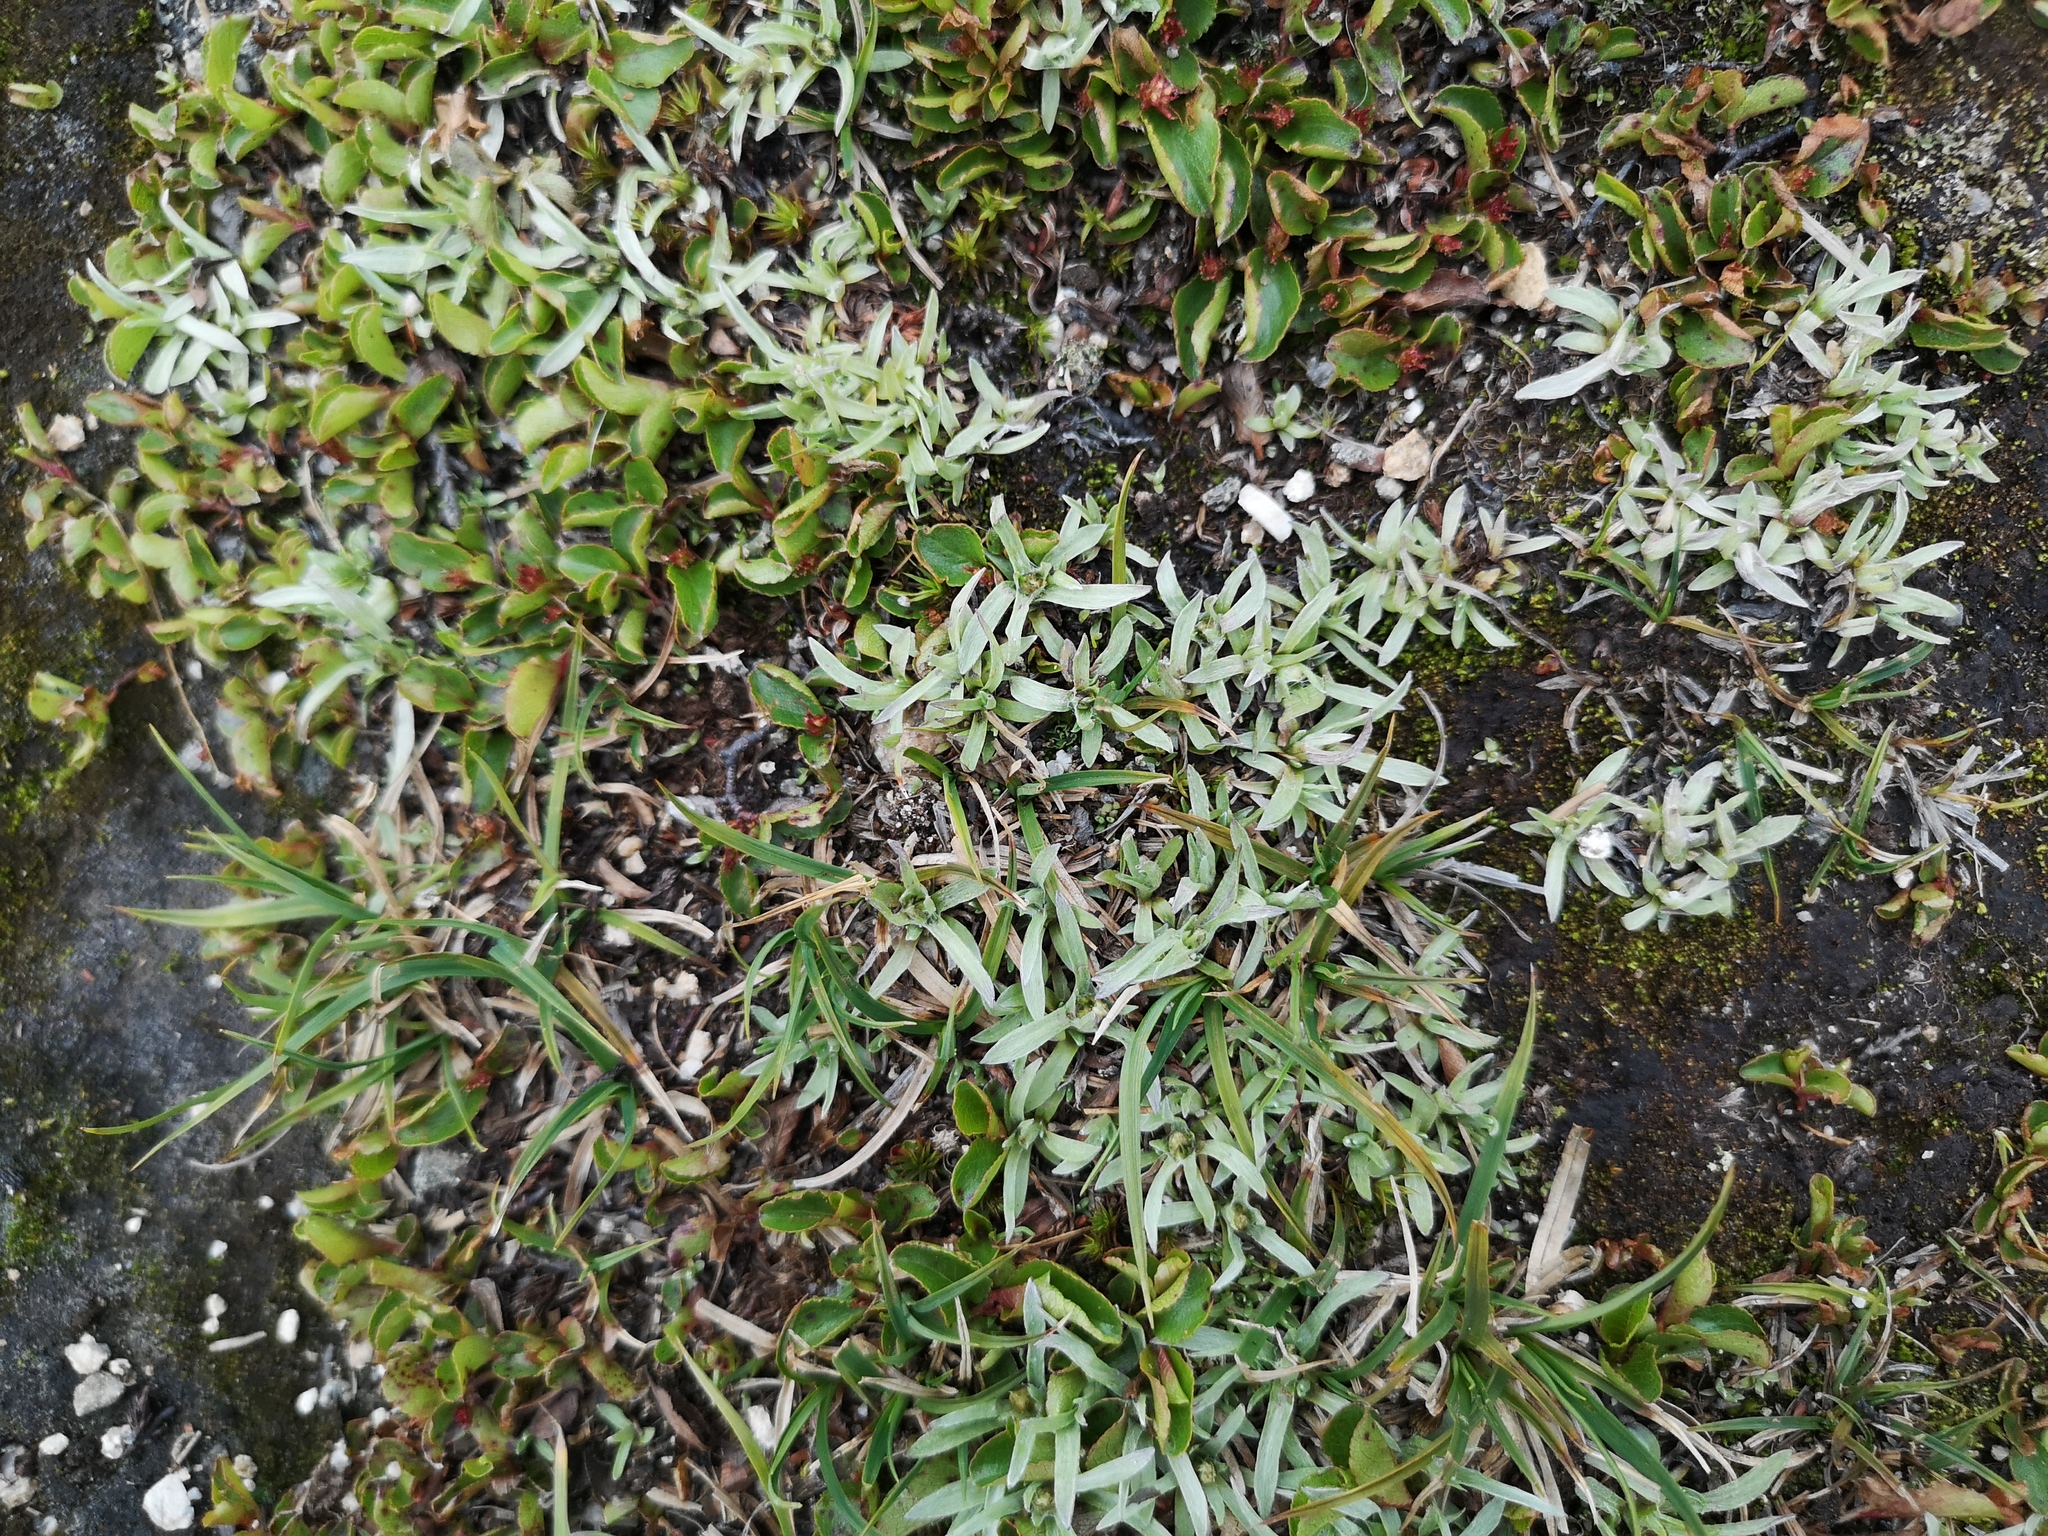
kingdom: Plantae
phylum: Tracheophyta
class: Magnoliopsida
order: Asterales
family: Asteraceae
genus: Omalotheca
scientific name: Omalotheca supina
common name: Alpine arctic-cudweed
